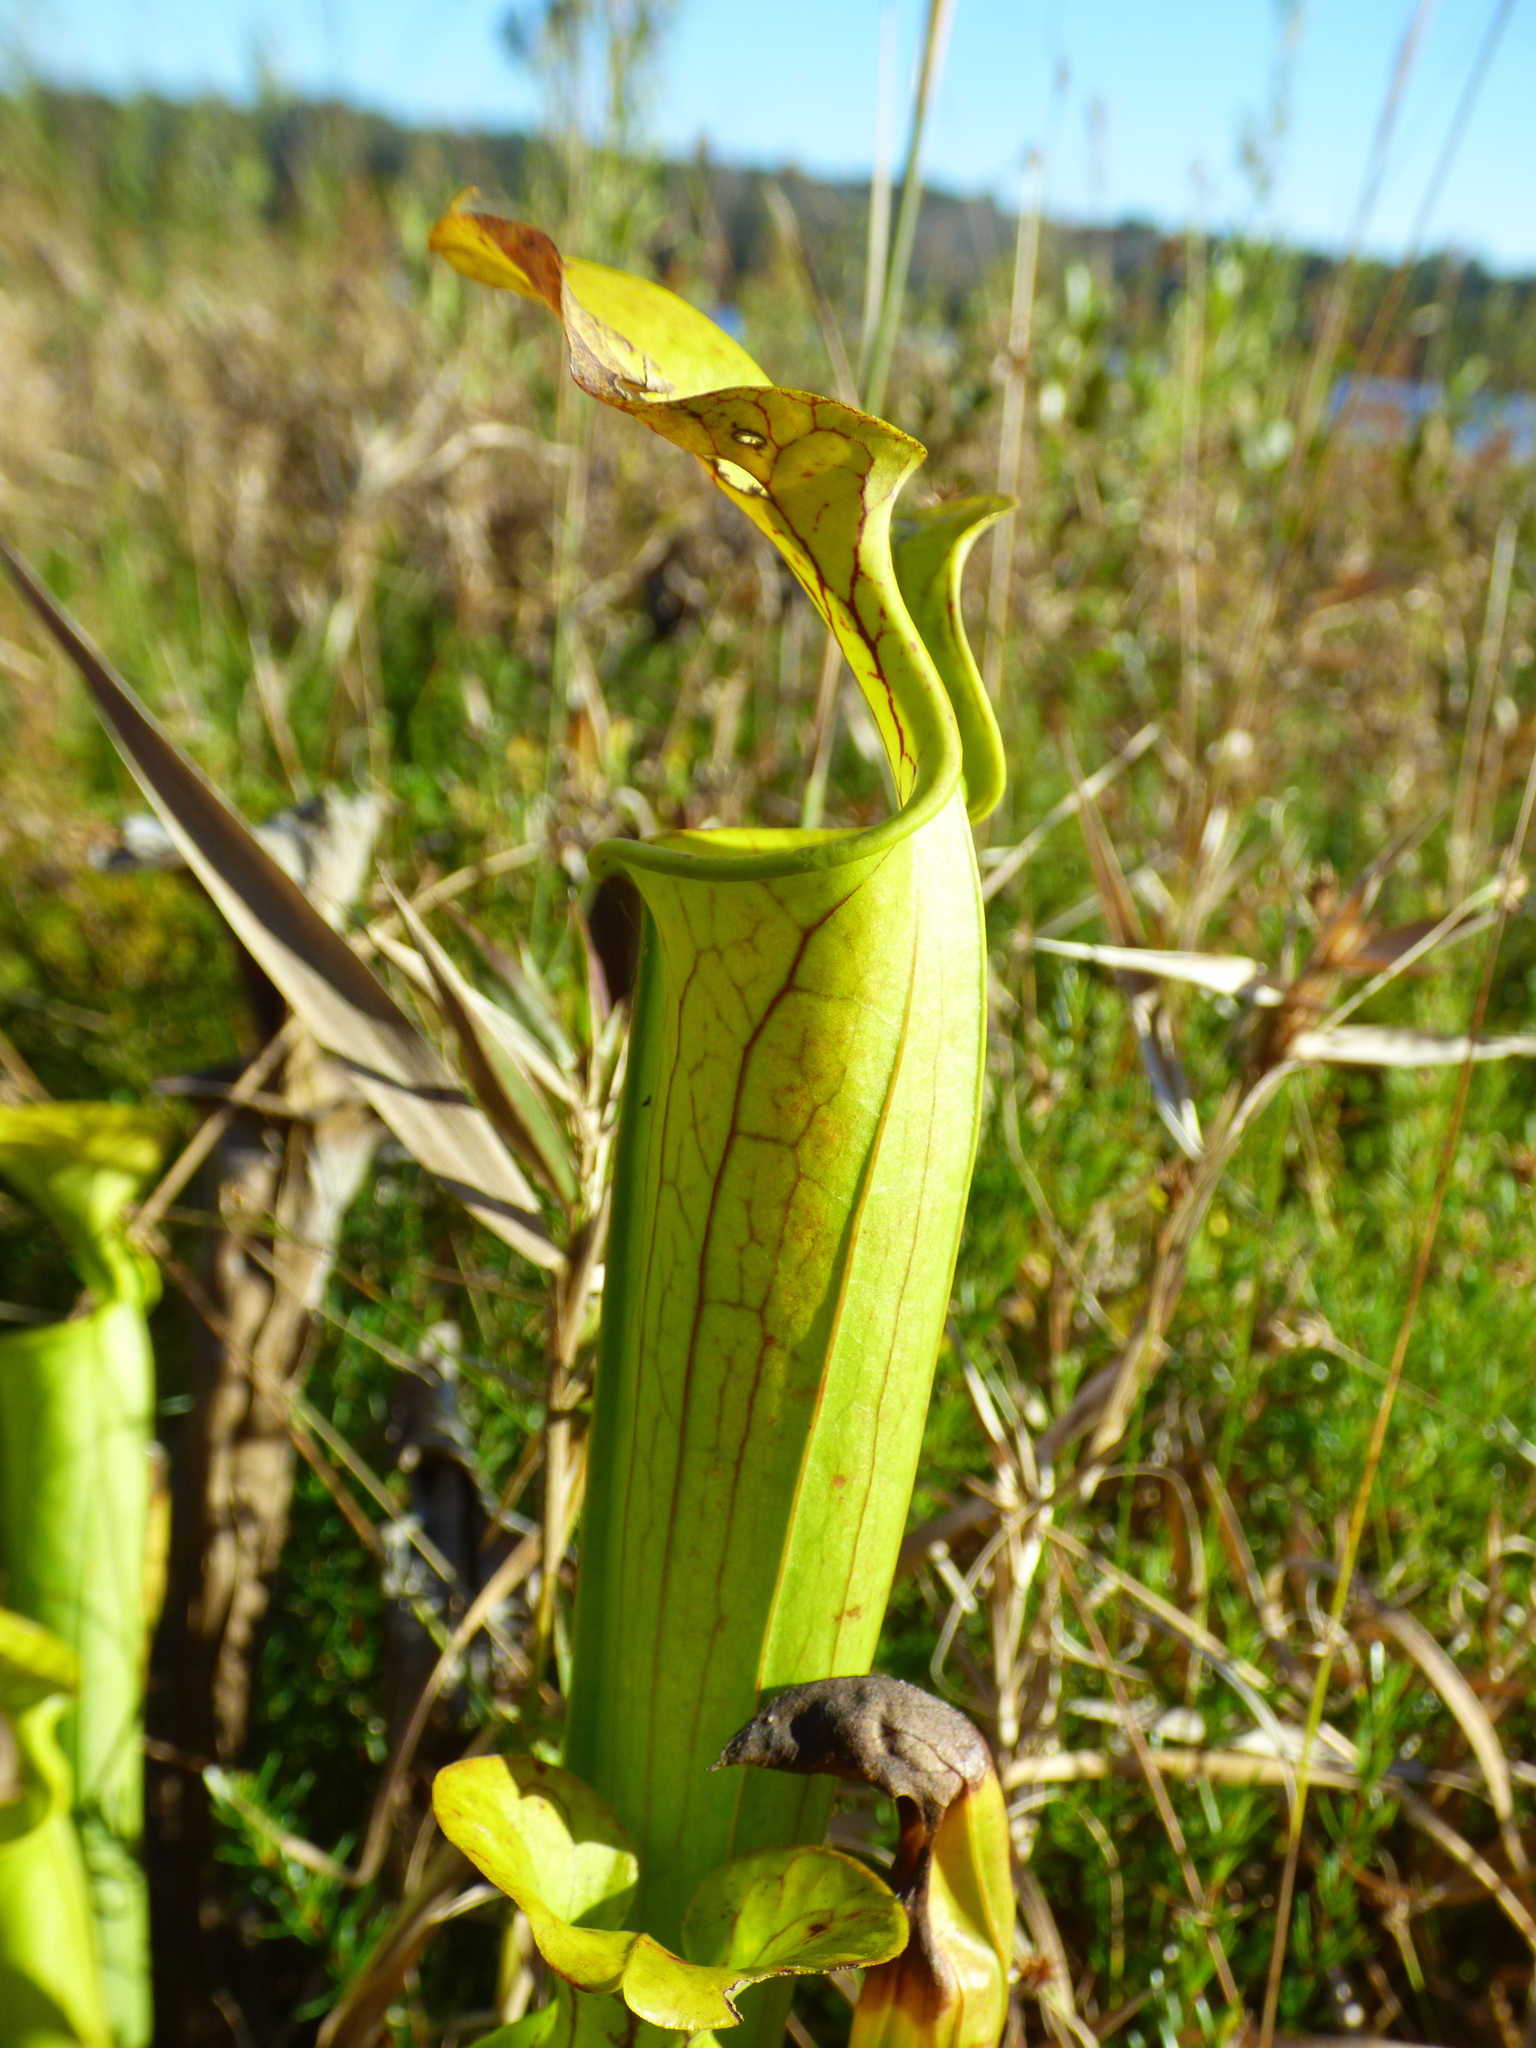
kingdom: Plantae
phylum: Tracheophyta
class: Magnoliopsida
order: Ericales
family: Sarraceniaceae
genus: Sarracenia
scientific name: Sarracenia flava
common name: Trumpets
